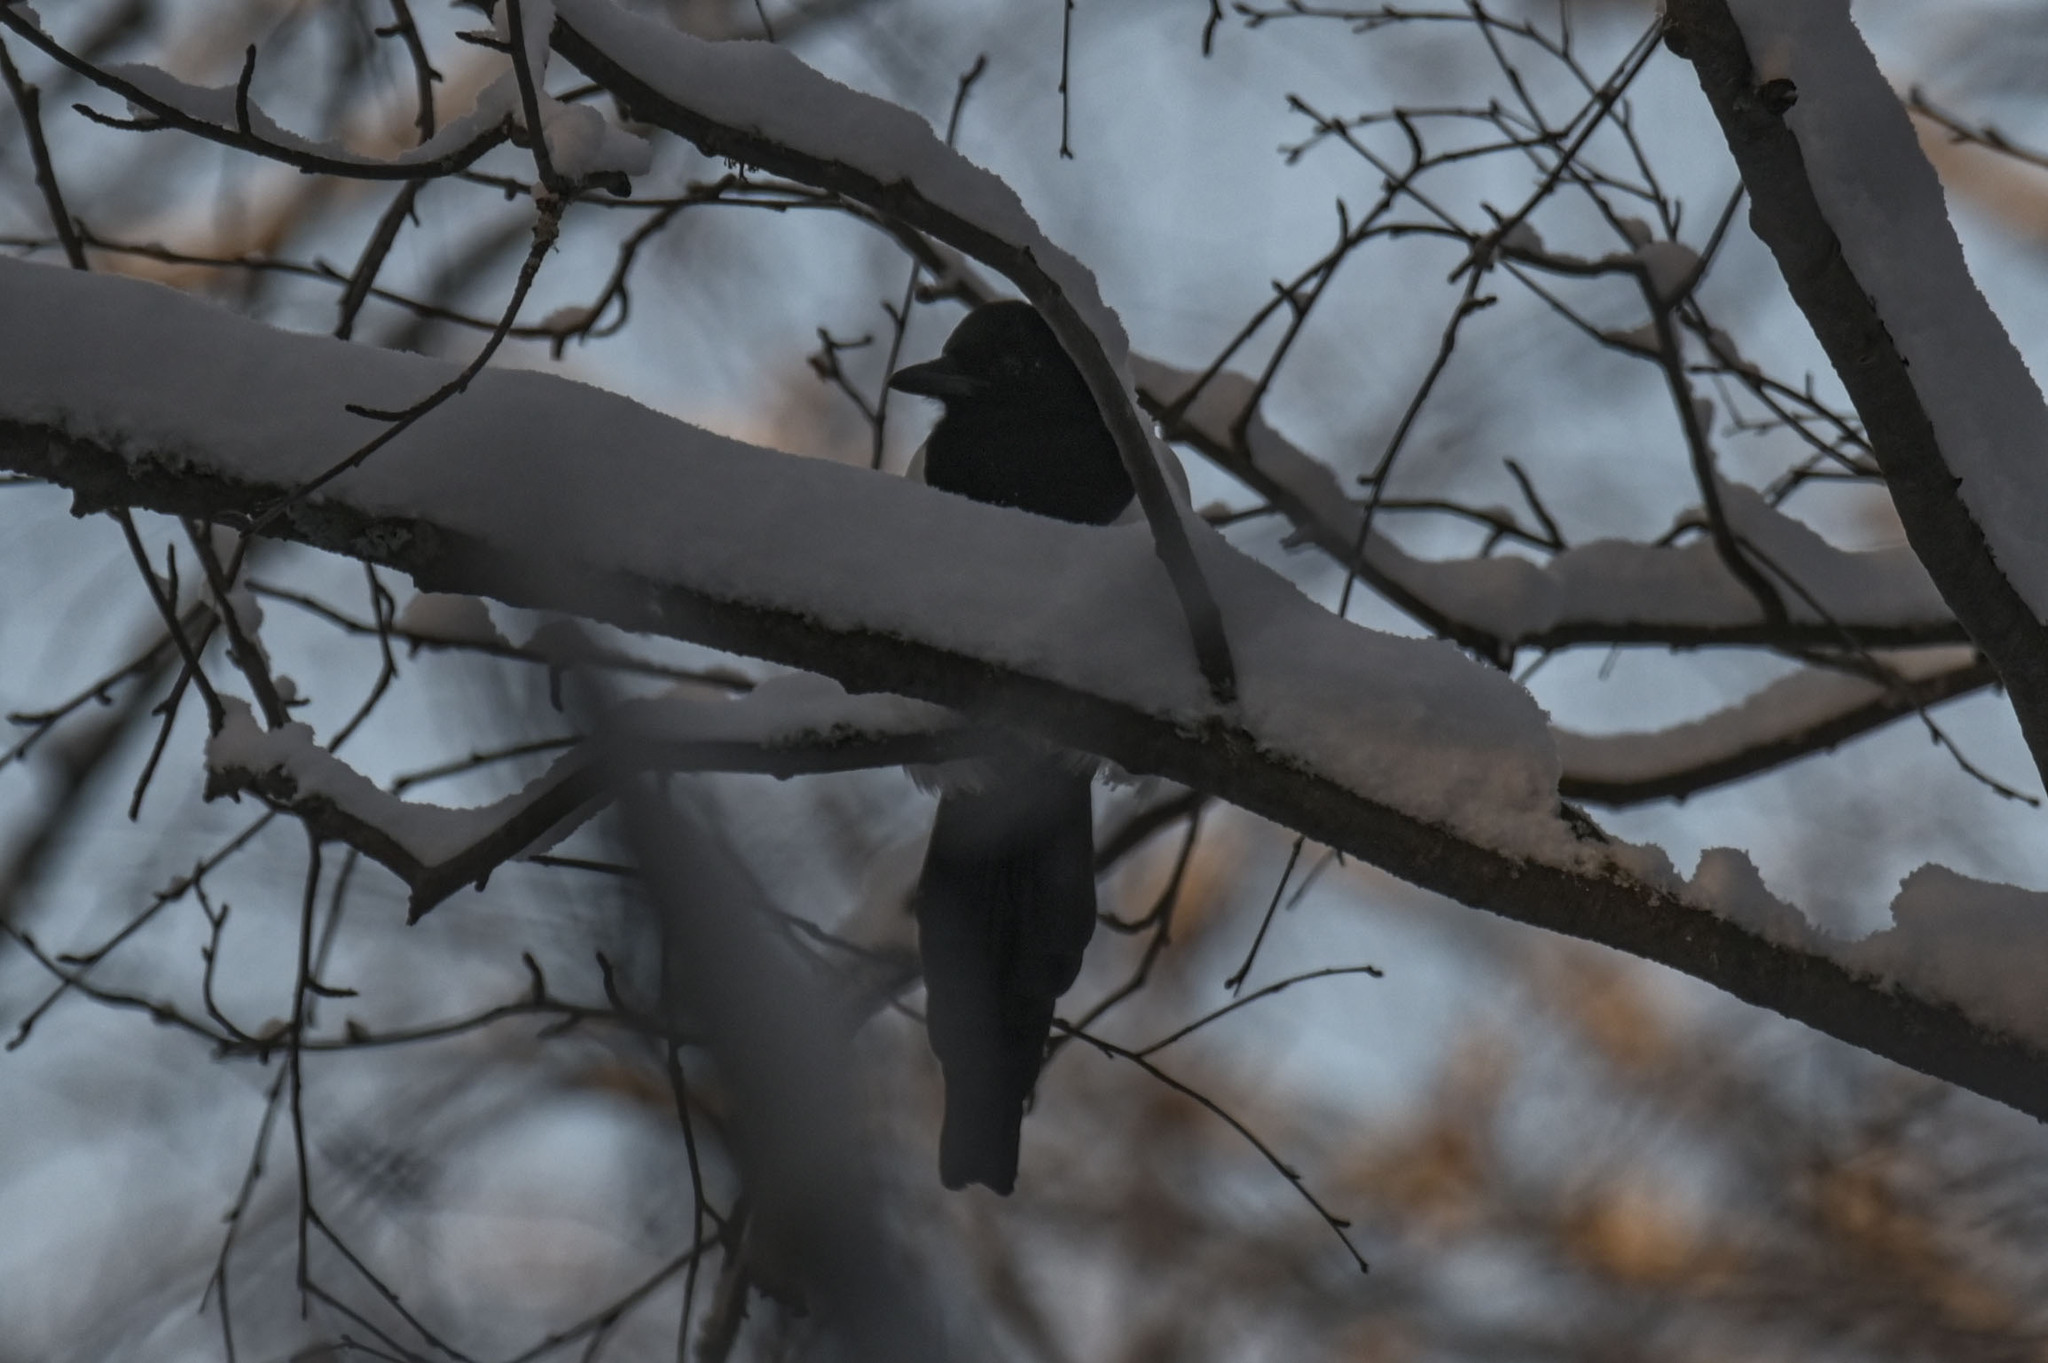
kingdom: Animalia
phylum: Chordata
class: Aves
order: Passeriformes
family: Corvidae
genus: Pica
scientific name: Pica pica
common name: Eurasian magpie
